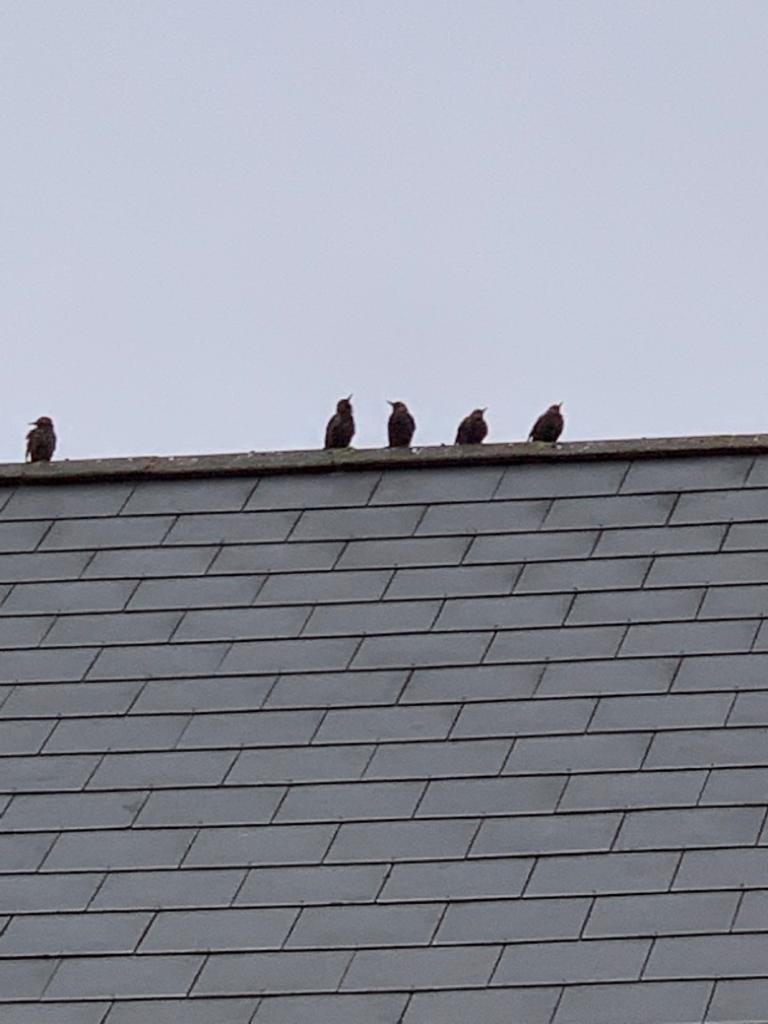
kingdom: Animalia
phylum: Chordata
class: Aves
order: Passeriformes
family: Sturnidae
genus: Sturnus
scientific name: Sturnus vulgaris
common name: Common starling
